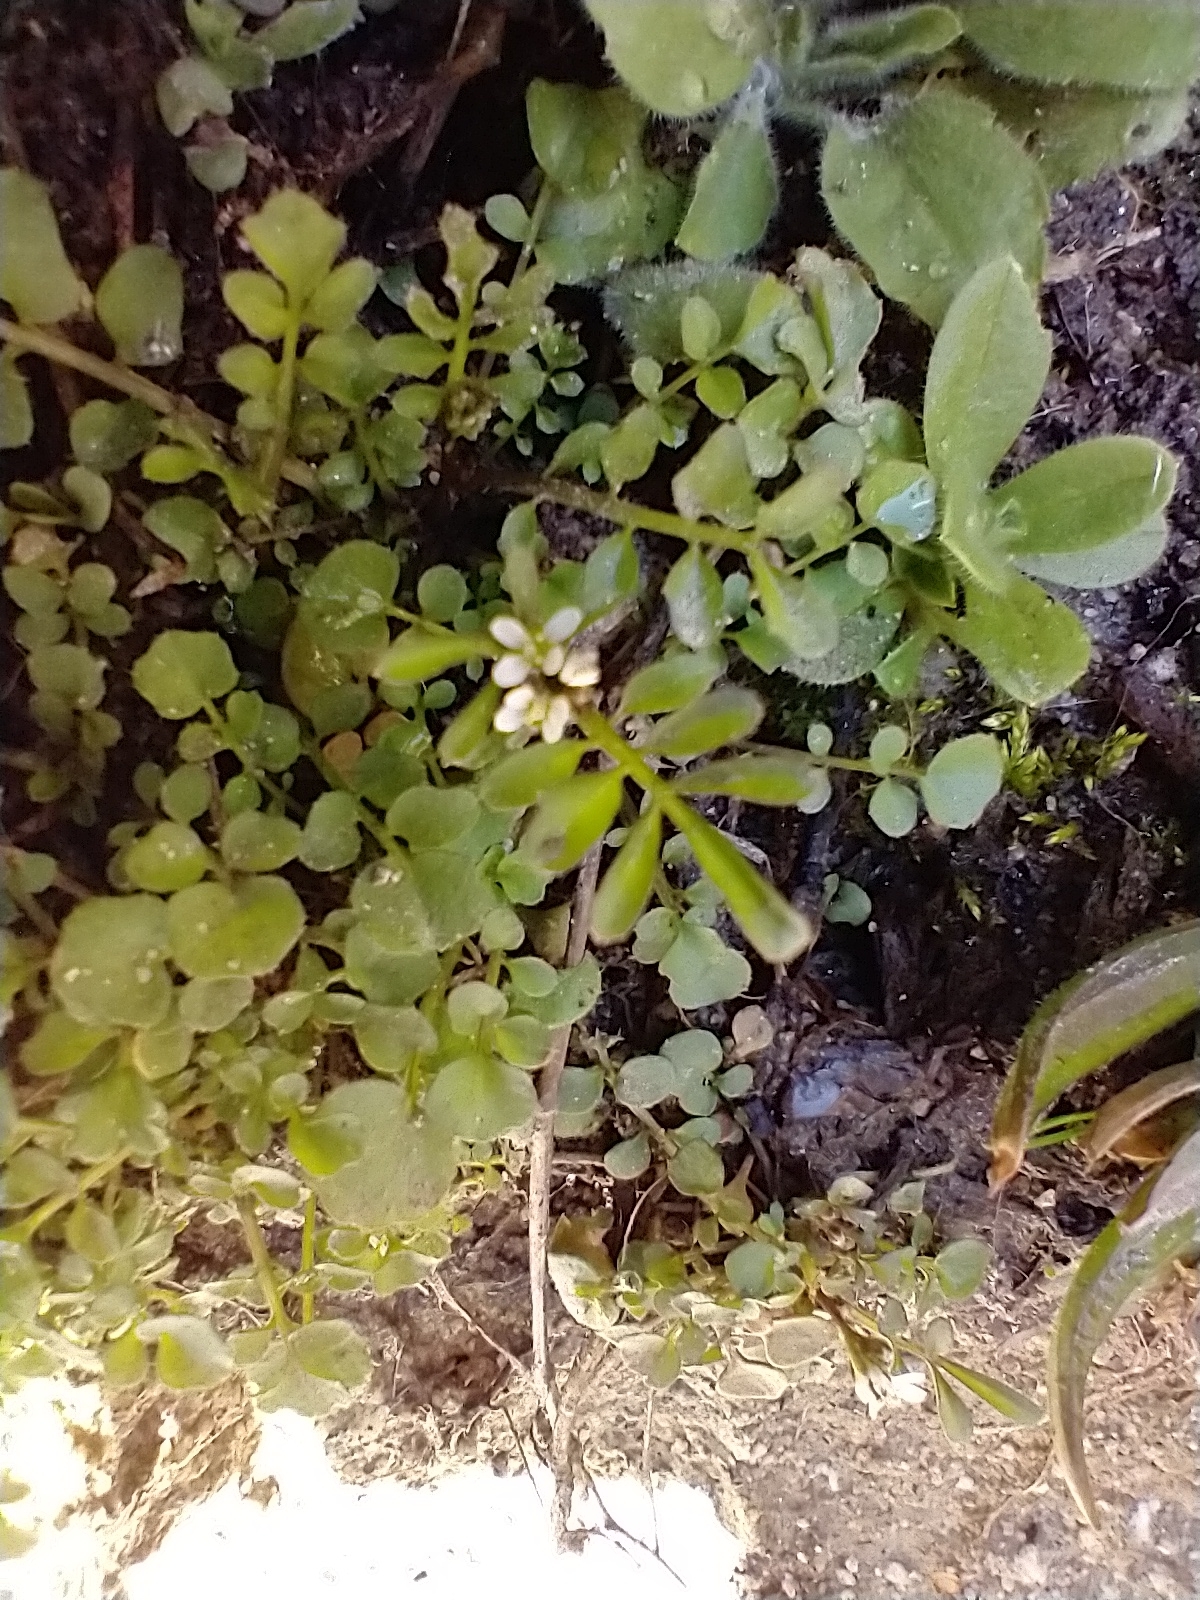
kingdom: Plantae
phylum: Tracheophyta
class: Magnoliopsida
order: Brassicales
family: Brassicaceae
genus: Cardamine
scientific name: Cardamine hirsuta
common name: Hairy bittercress
